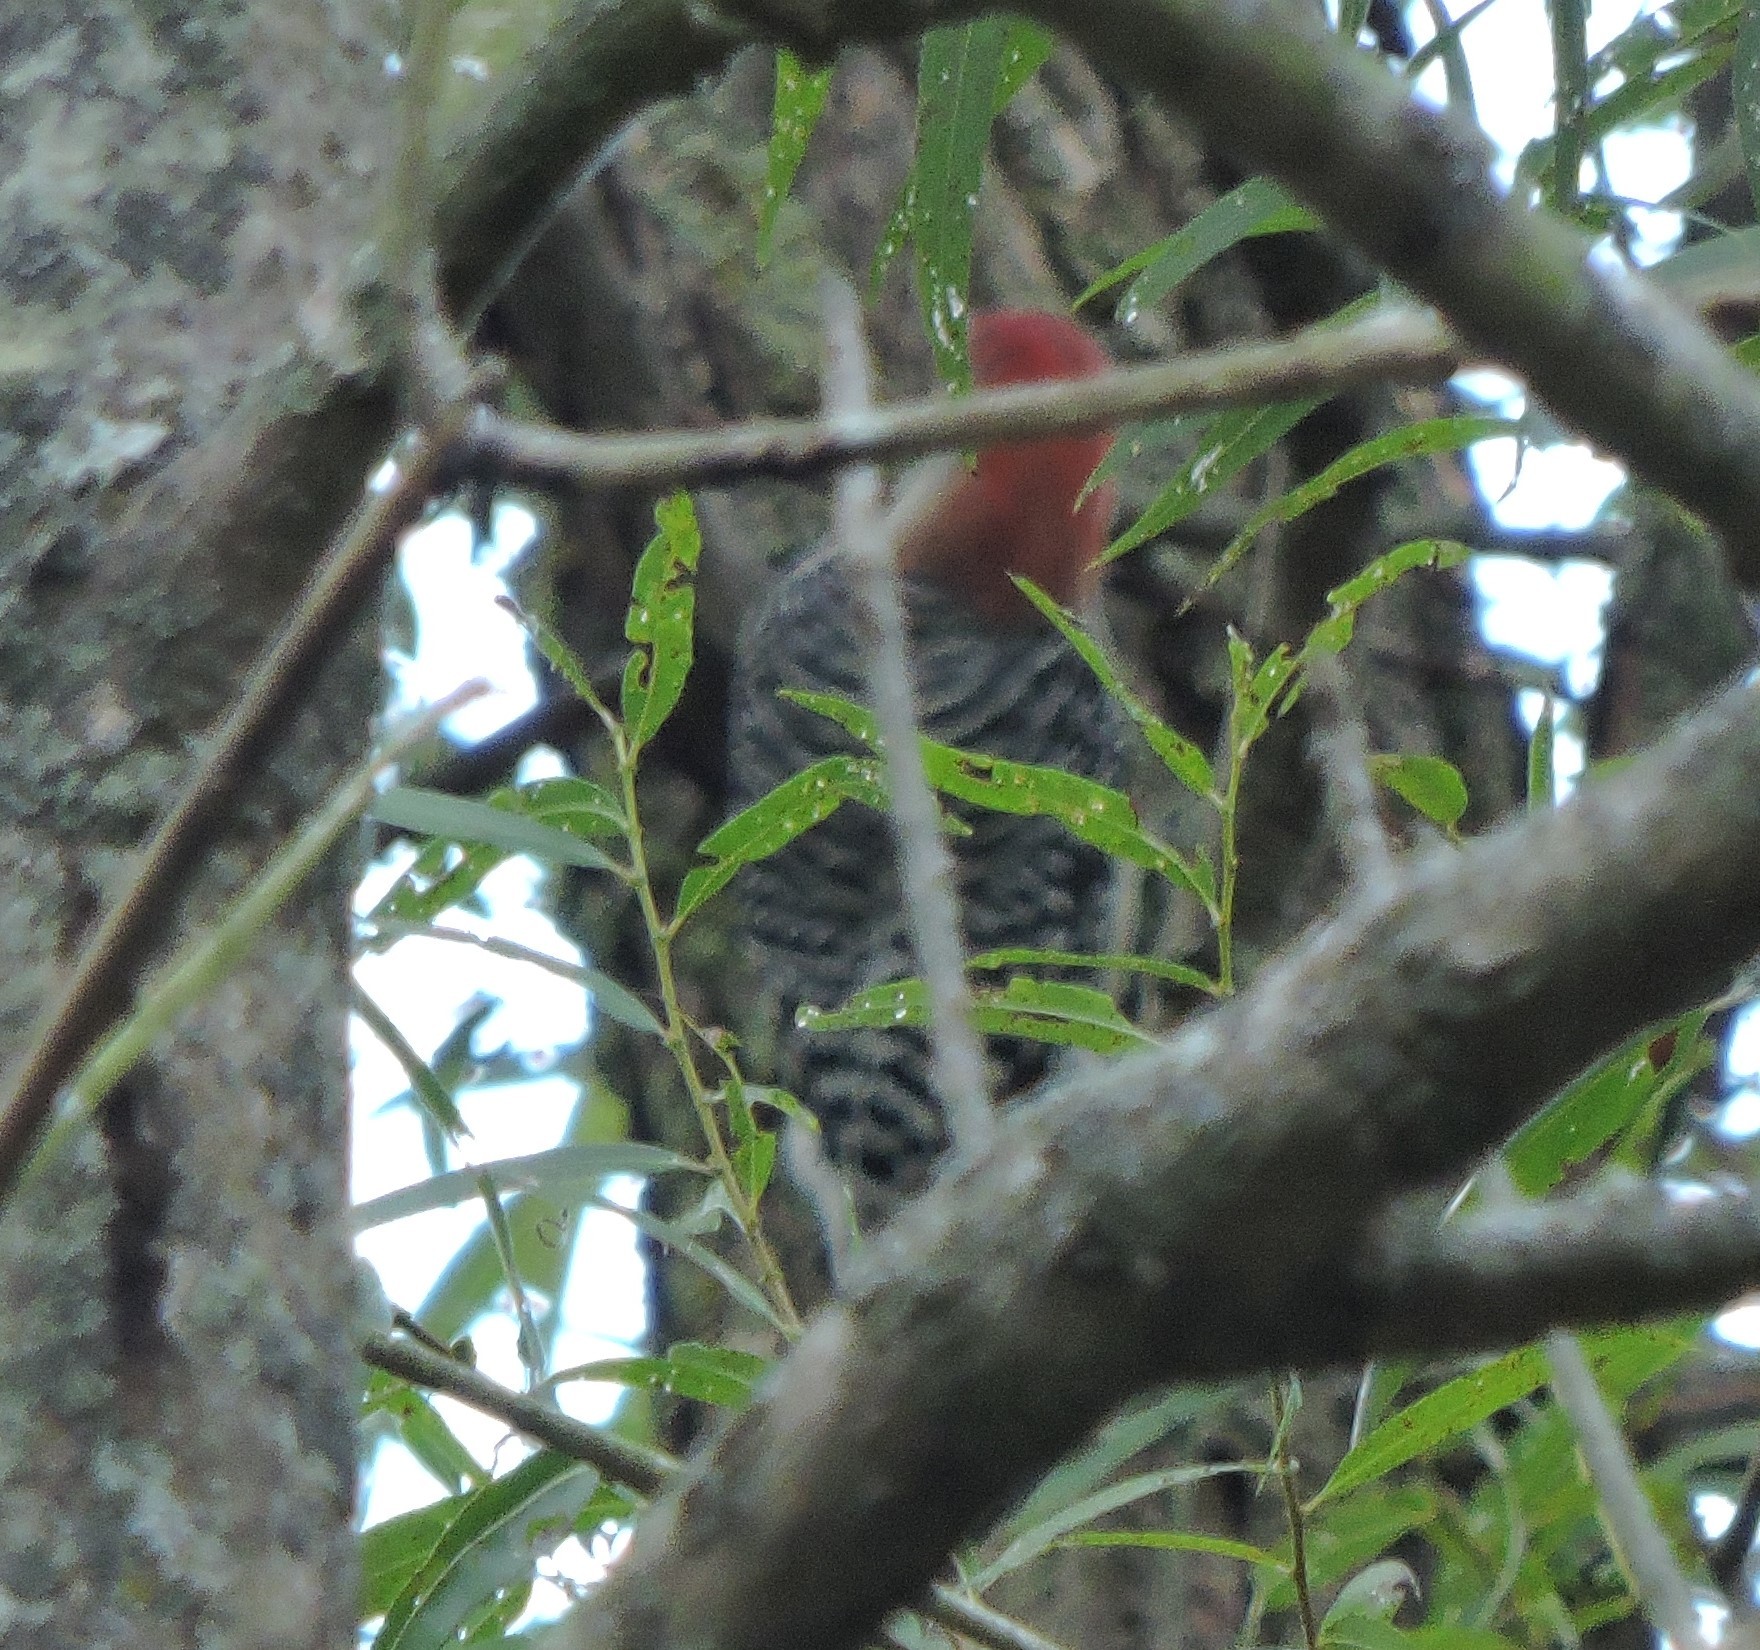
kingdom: Animalia
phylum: Chordata
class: Aves
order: Piciformes
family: Picidae
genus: Melanerpes
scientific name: Melanerpes carolinus
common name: Red-bellied woodpecker
